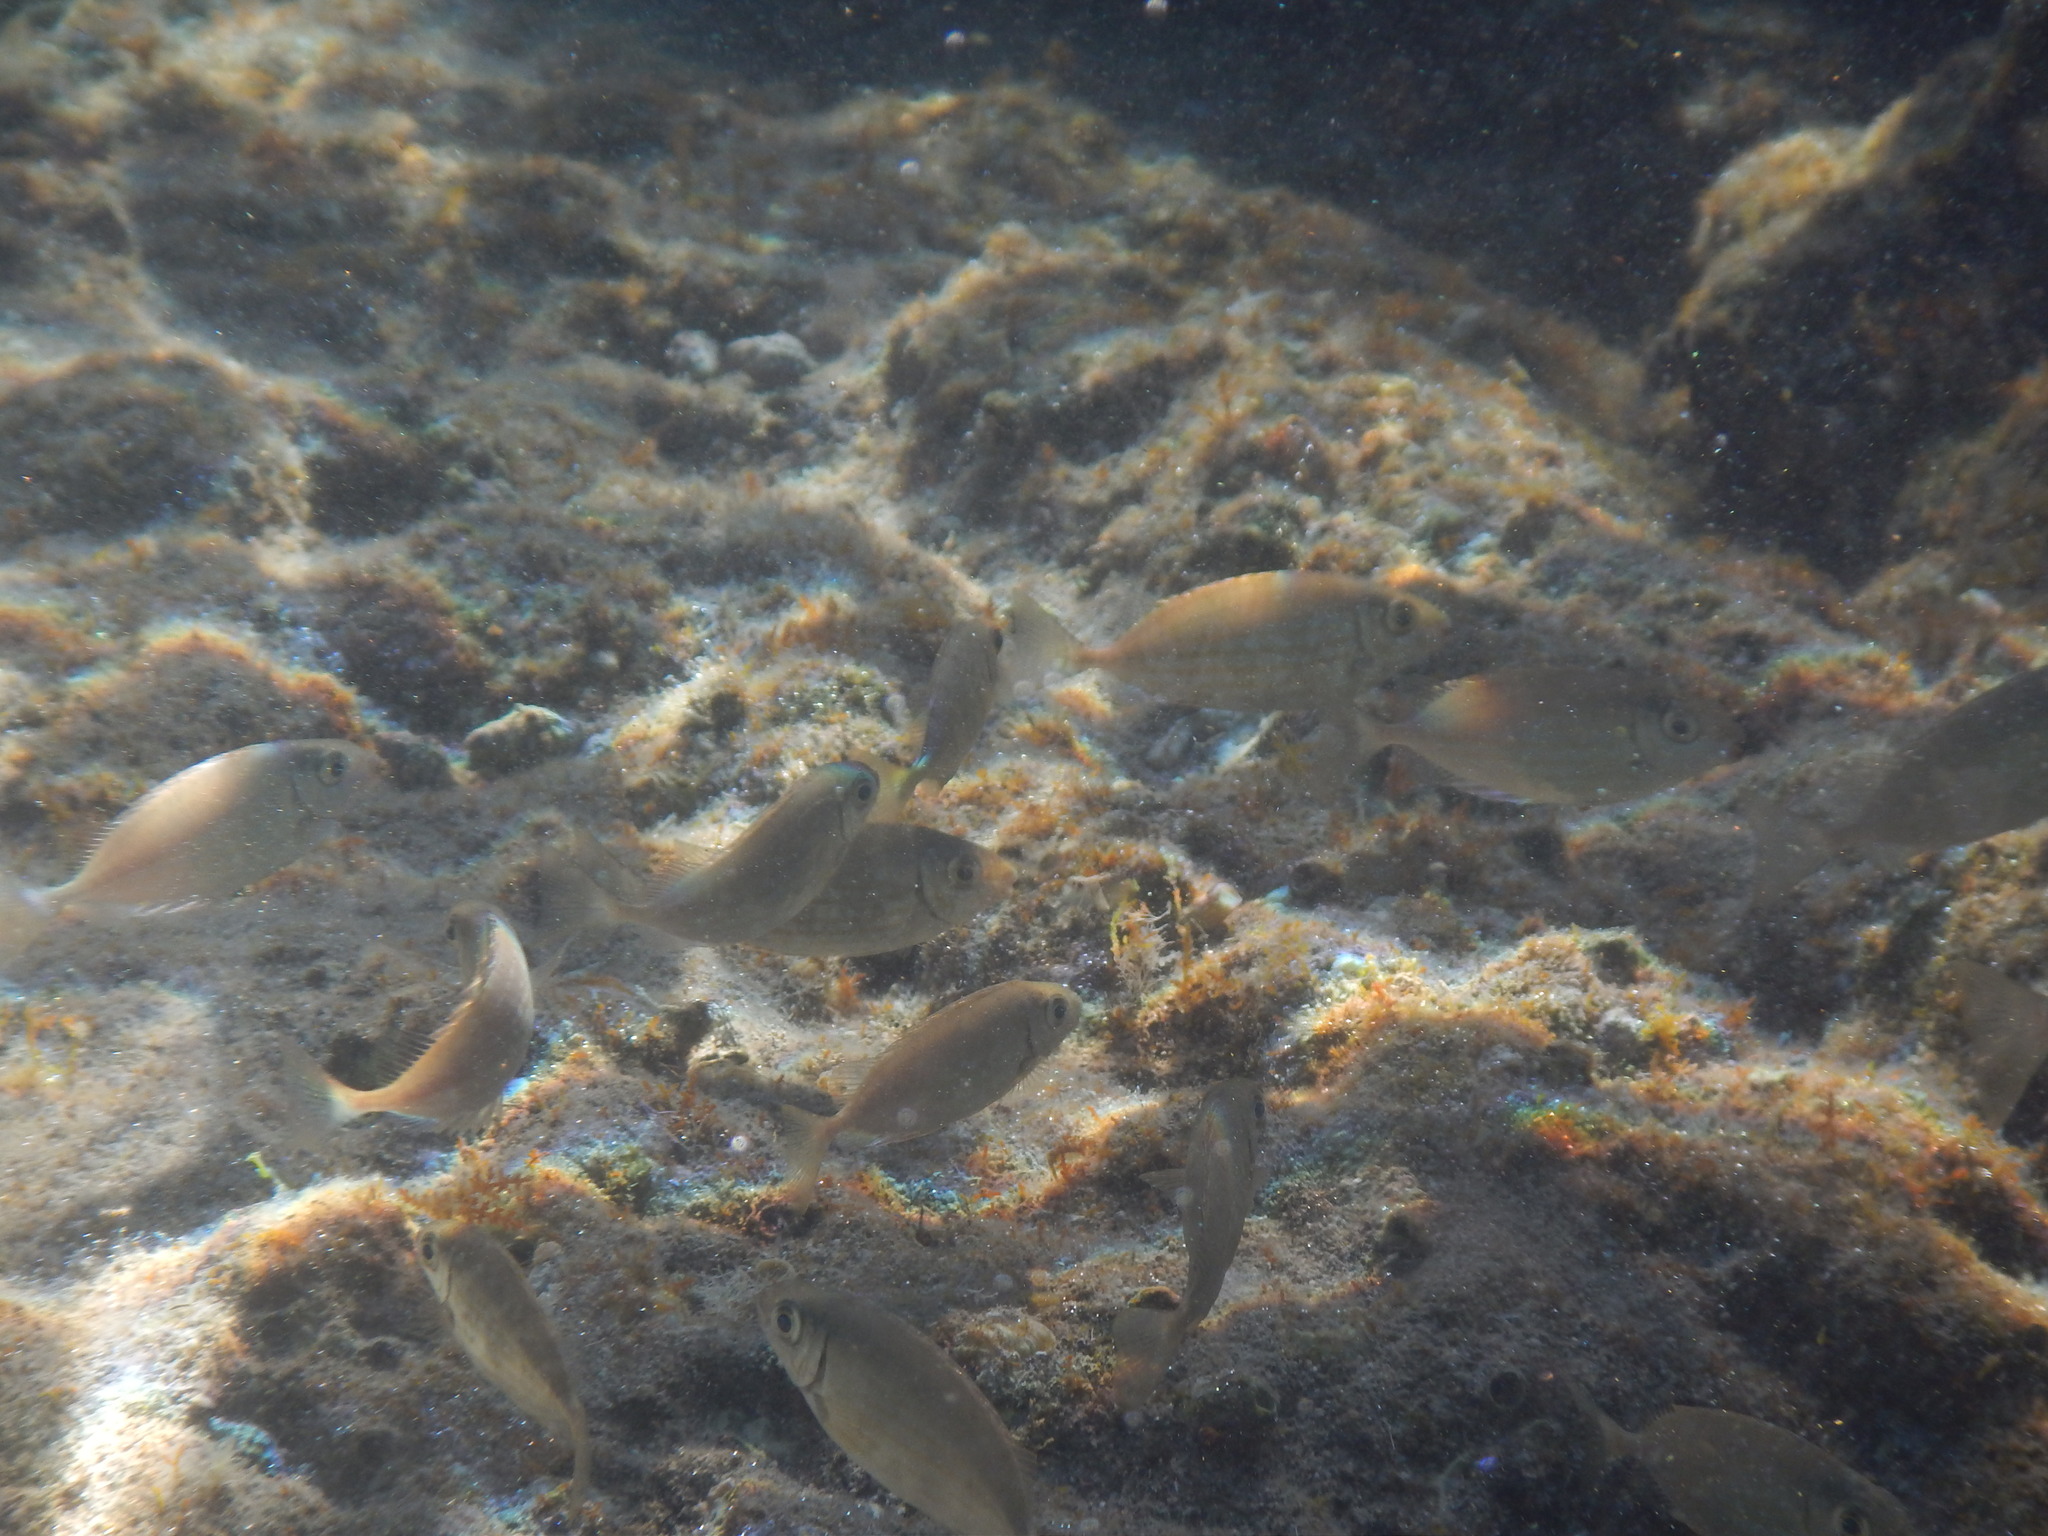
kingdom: Animalia
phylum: Chordata
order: Perciformes
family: Siganidae
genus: Siganus
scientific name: Siganus rivulatus
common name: Marbled spinefoot
